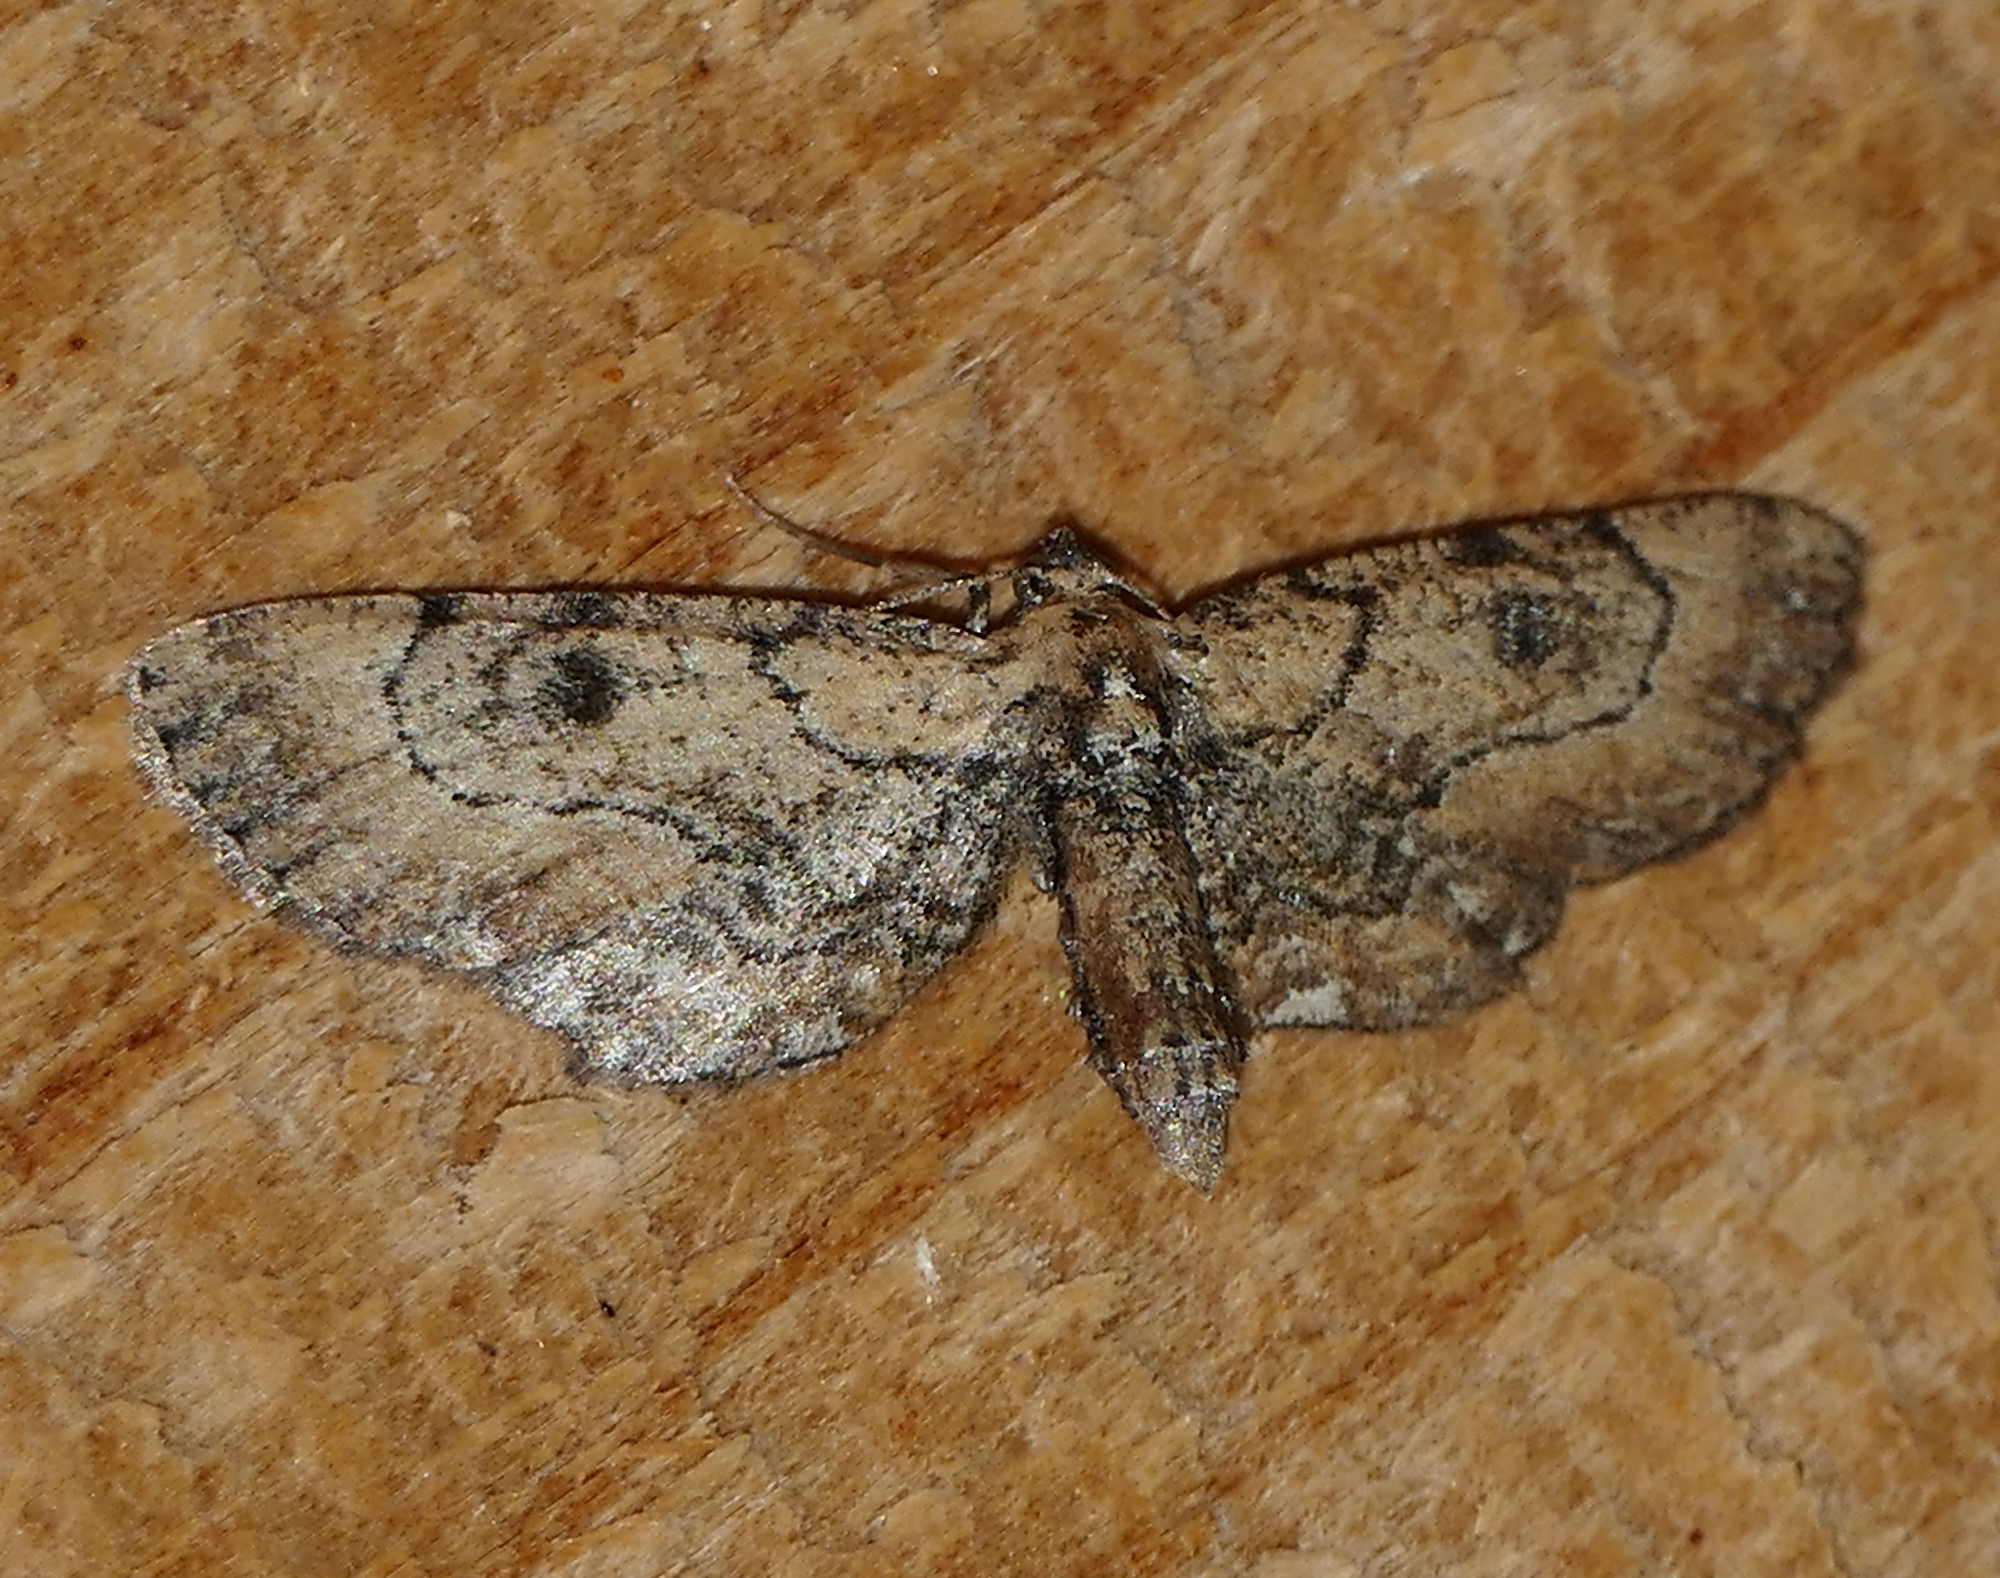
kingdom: Animalia
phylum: Arthropoda
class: Insecta
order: Lepidoptera
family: Geometridae
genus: Tornos
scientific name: Tornos erectarius
